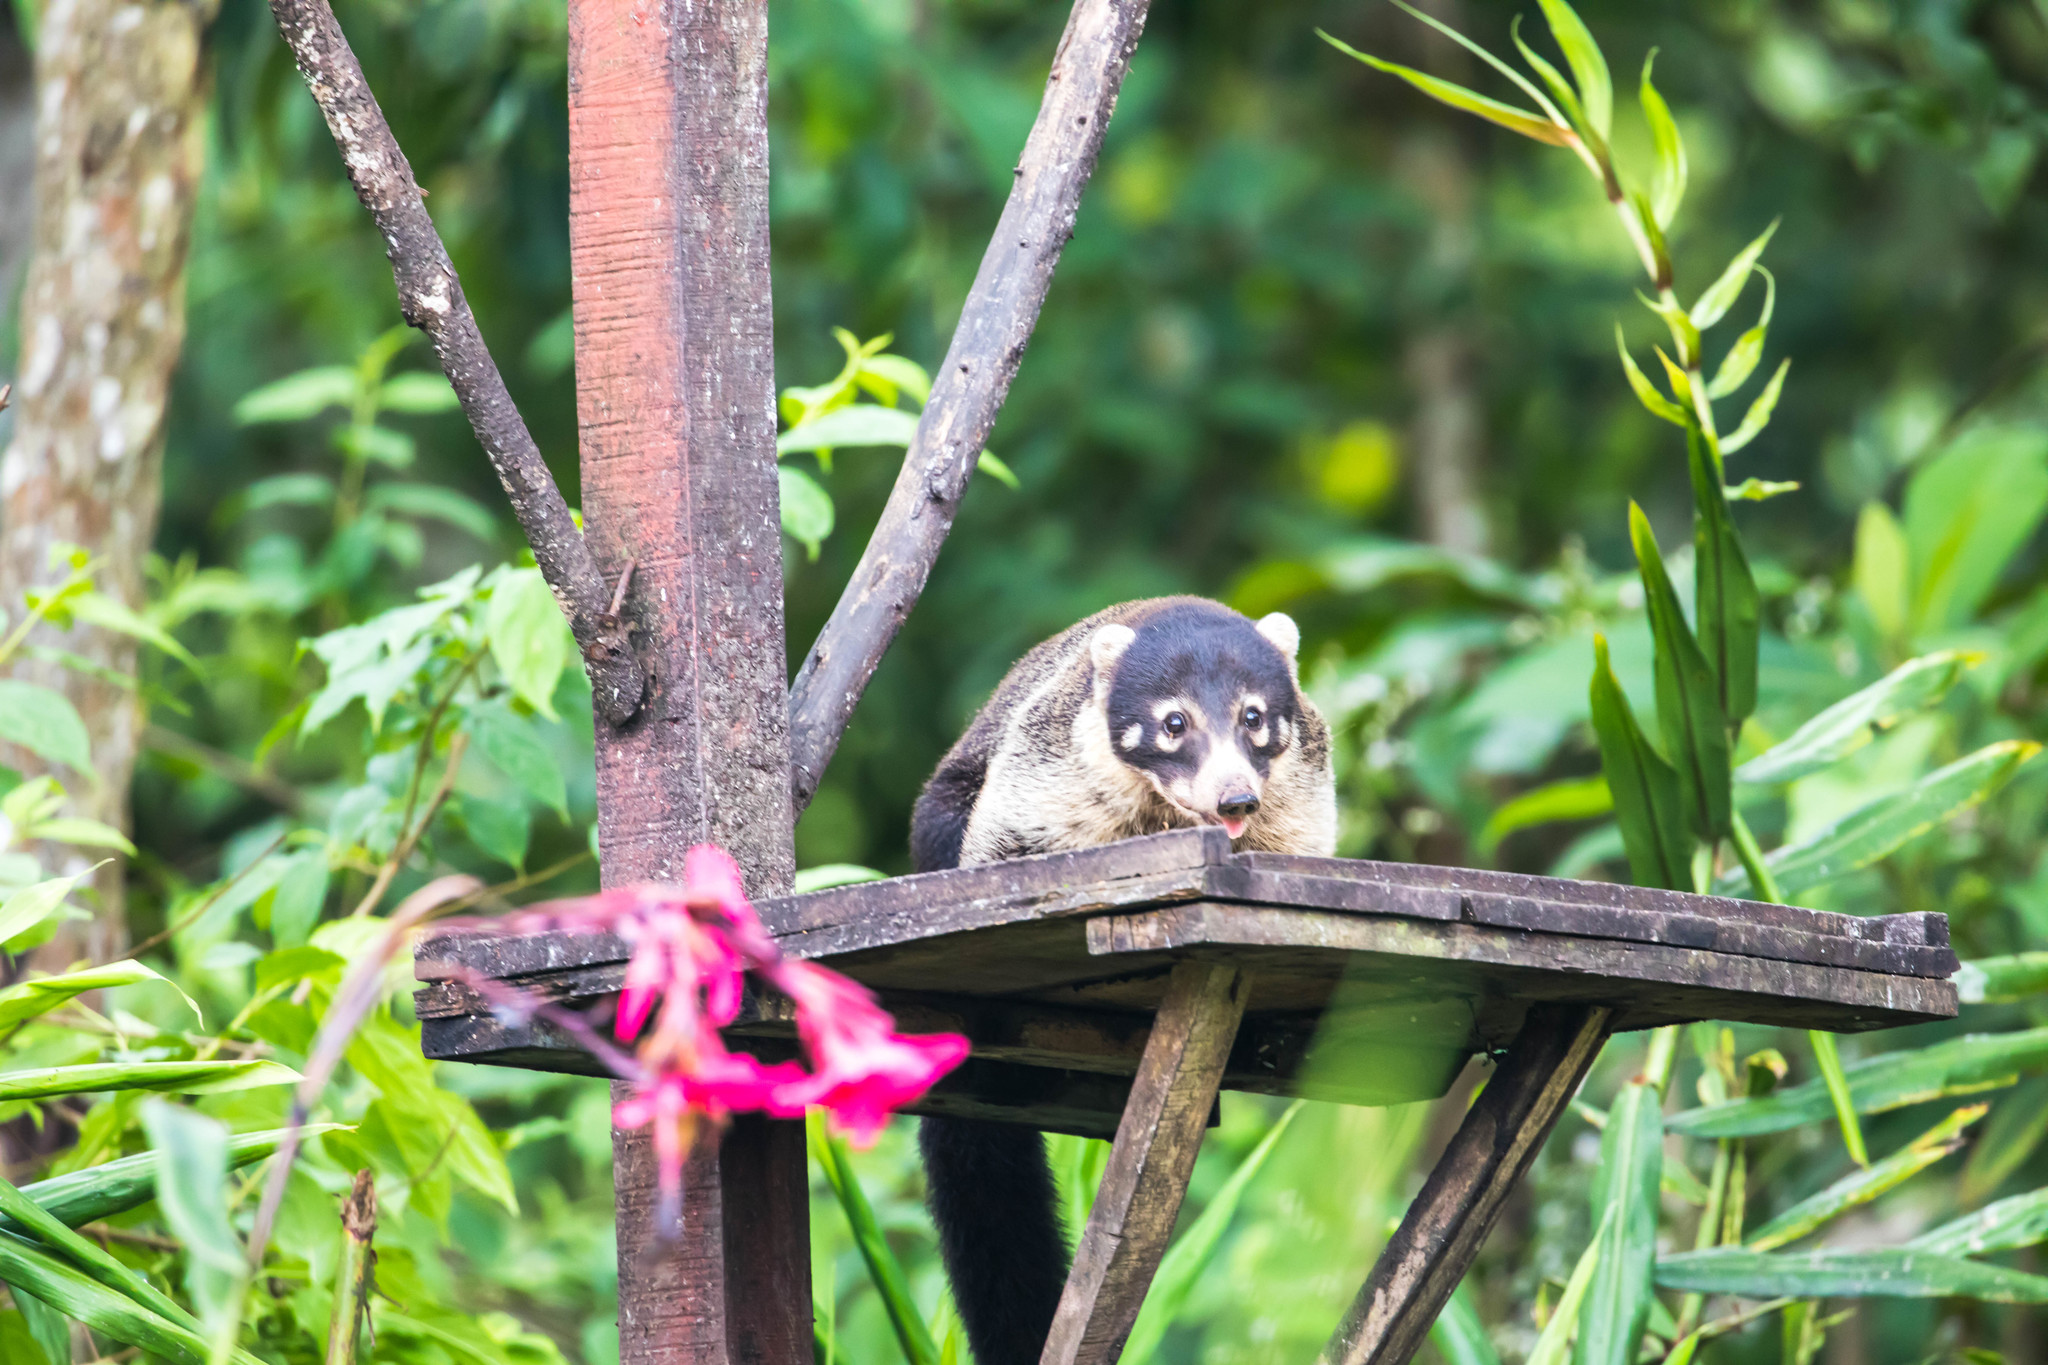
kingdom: Animalia
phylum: Chordata
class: Mammalia
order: Carnivora
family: Procyonidae
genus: Nasua
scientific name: Nasua narica
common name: White-nosed coati
